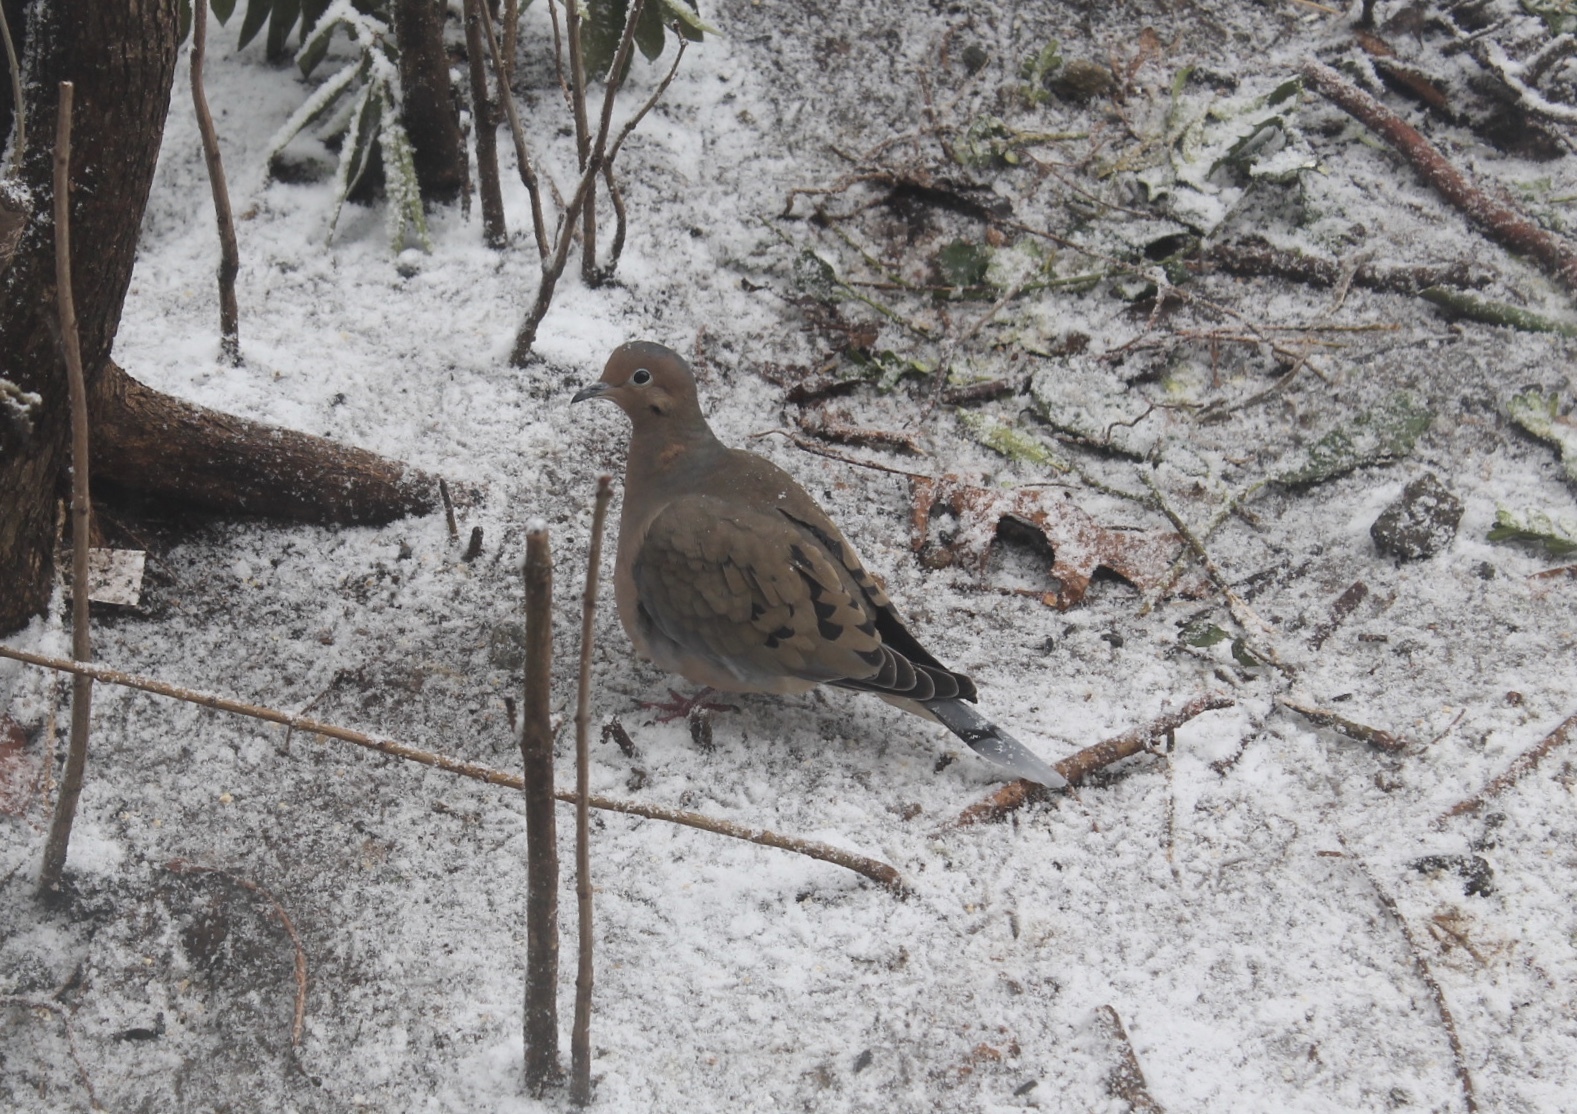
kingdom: Animalia
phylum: Chordata
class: Aves
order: Columbiformes
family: Columbidae
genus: Zenaida
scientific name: Zenaida macroura
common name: Mourning dove
